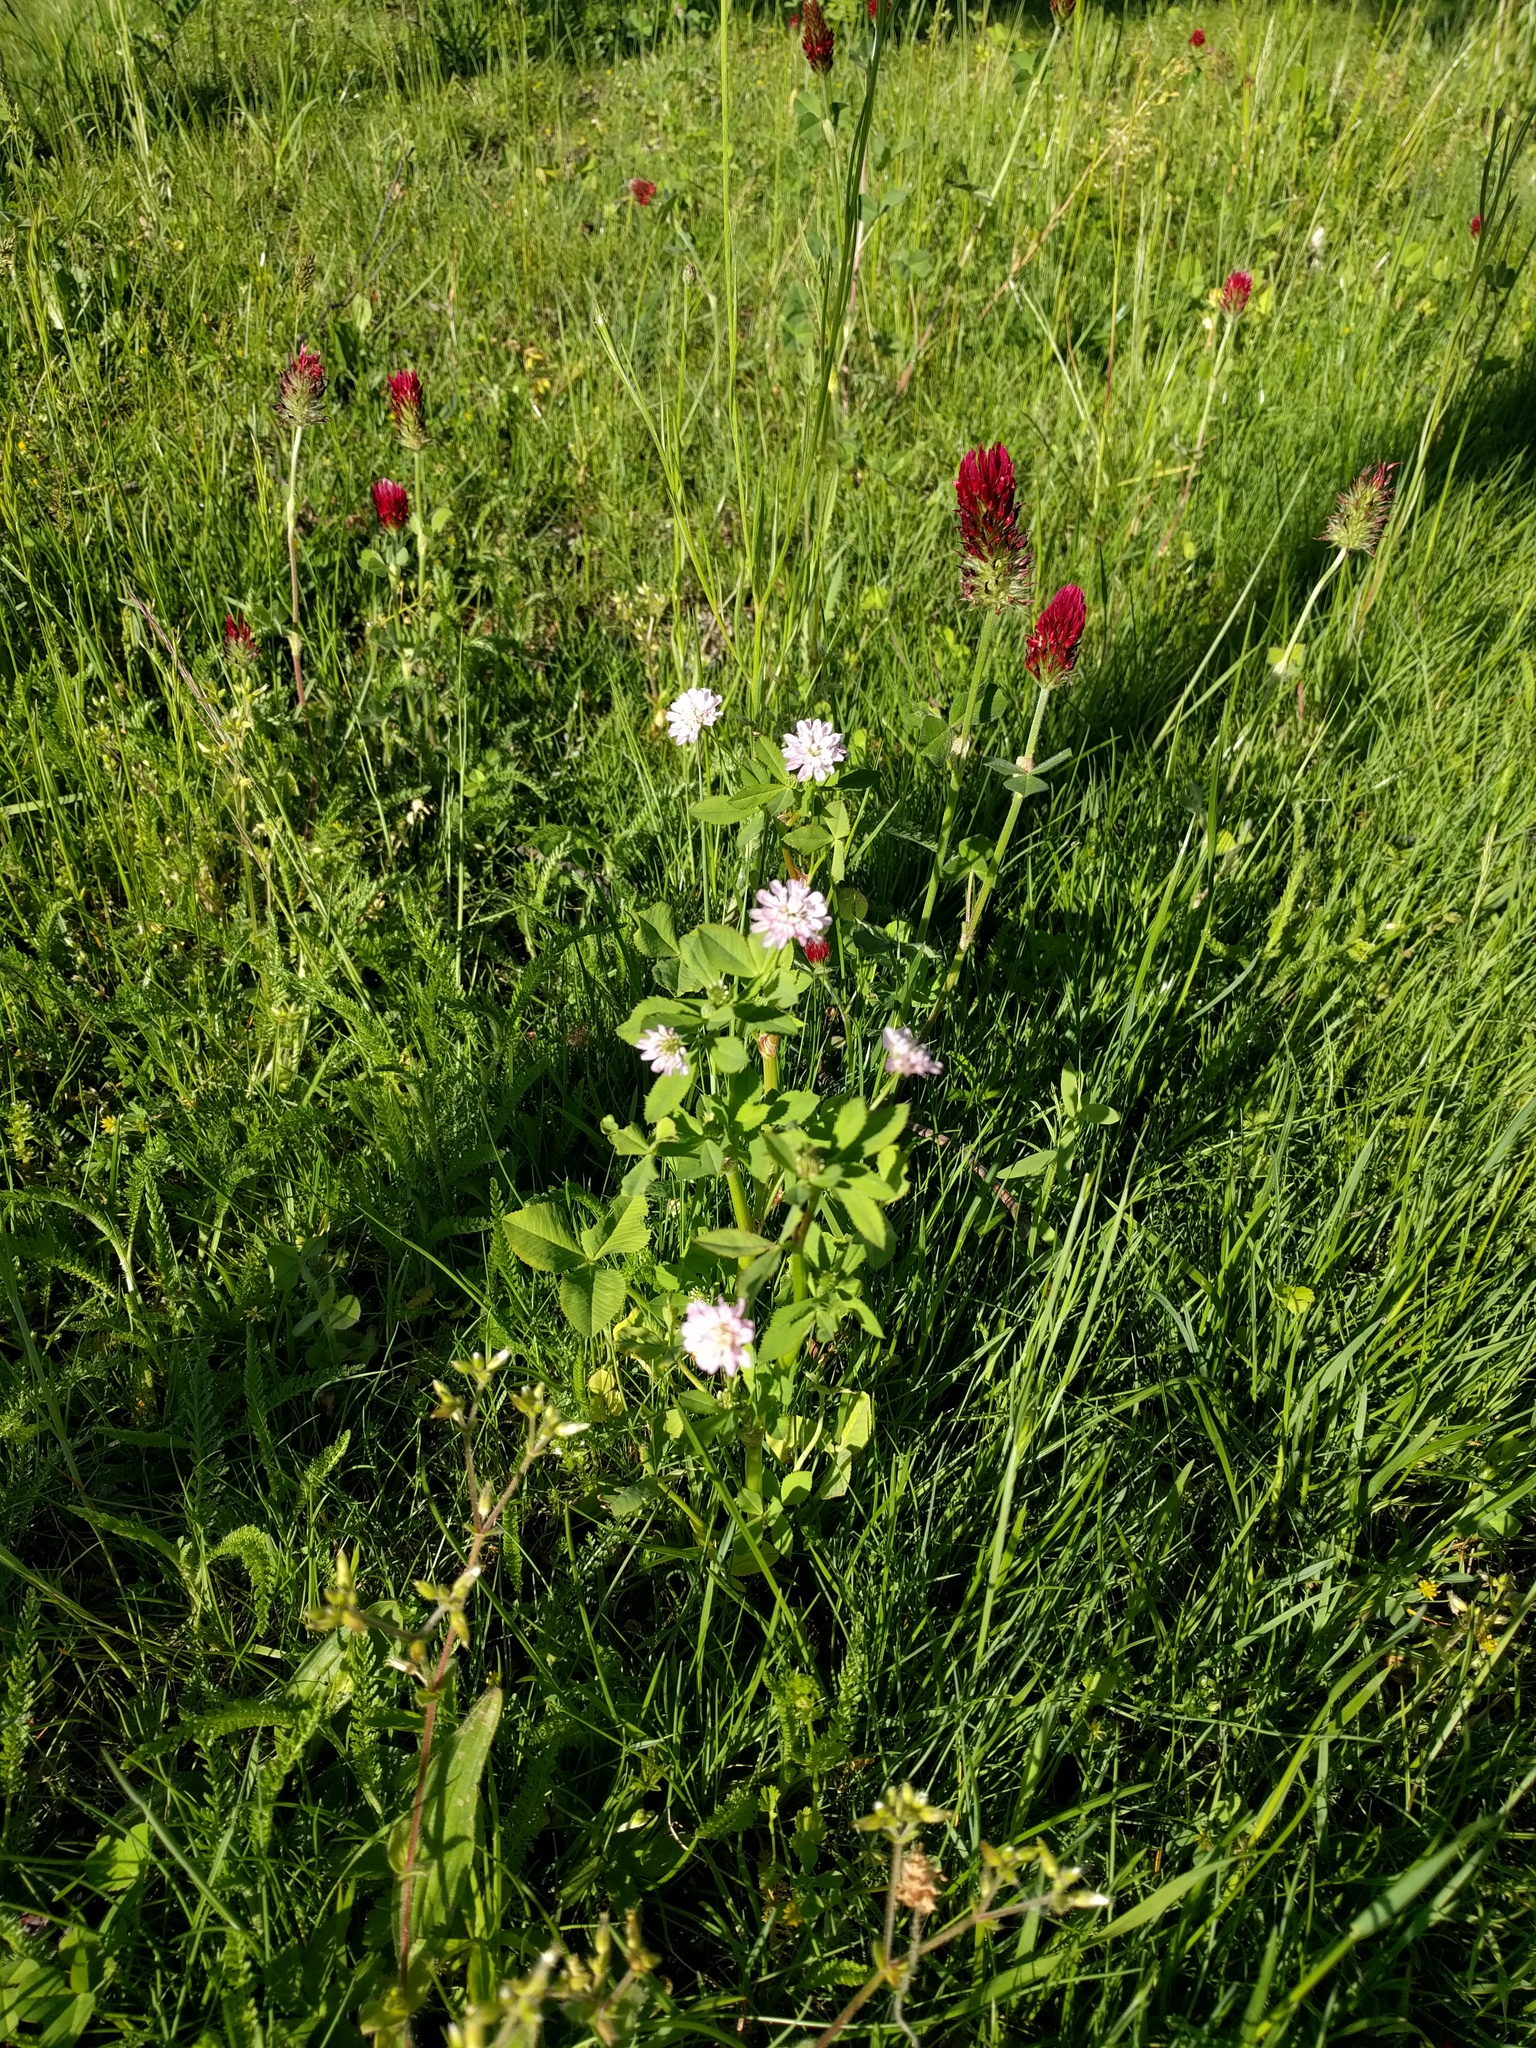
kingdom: Plantae
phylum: Tracheophyta
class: Magnoliopsida
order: Fabales
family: Fabaceae
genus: Trifolium
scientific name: Trifolium incarnatum
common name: Crimson clover
